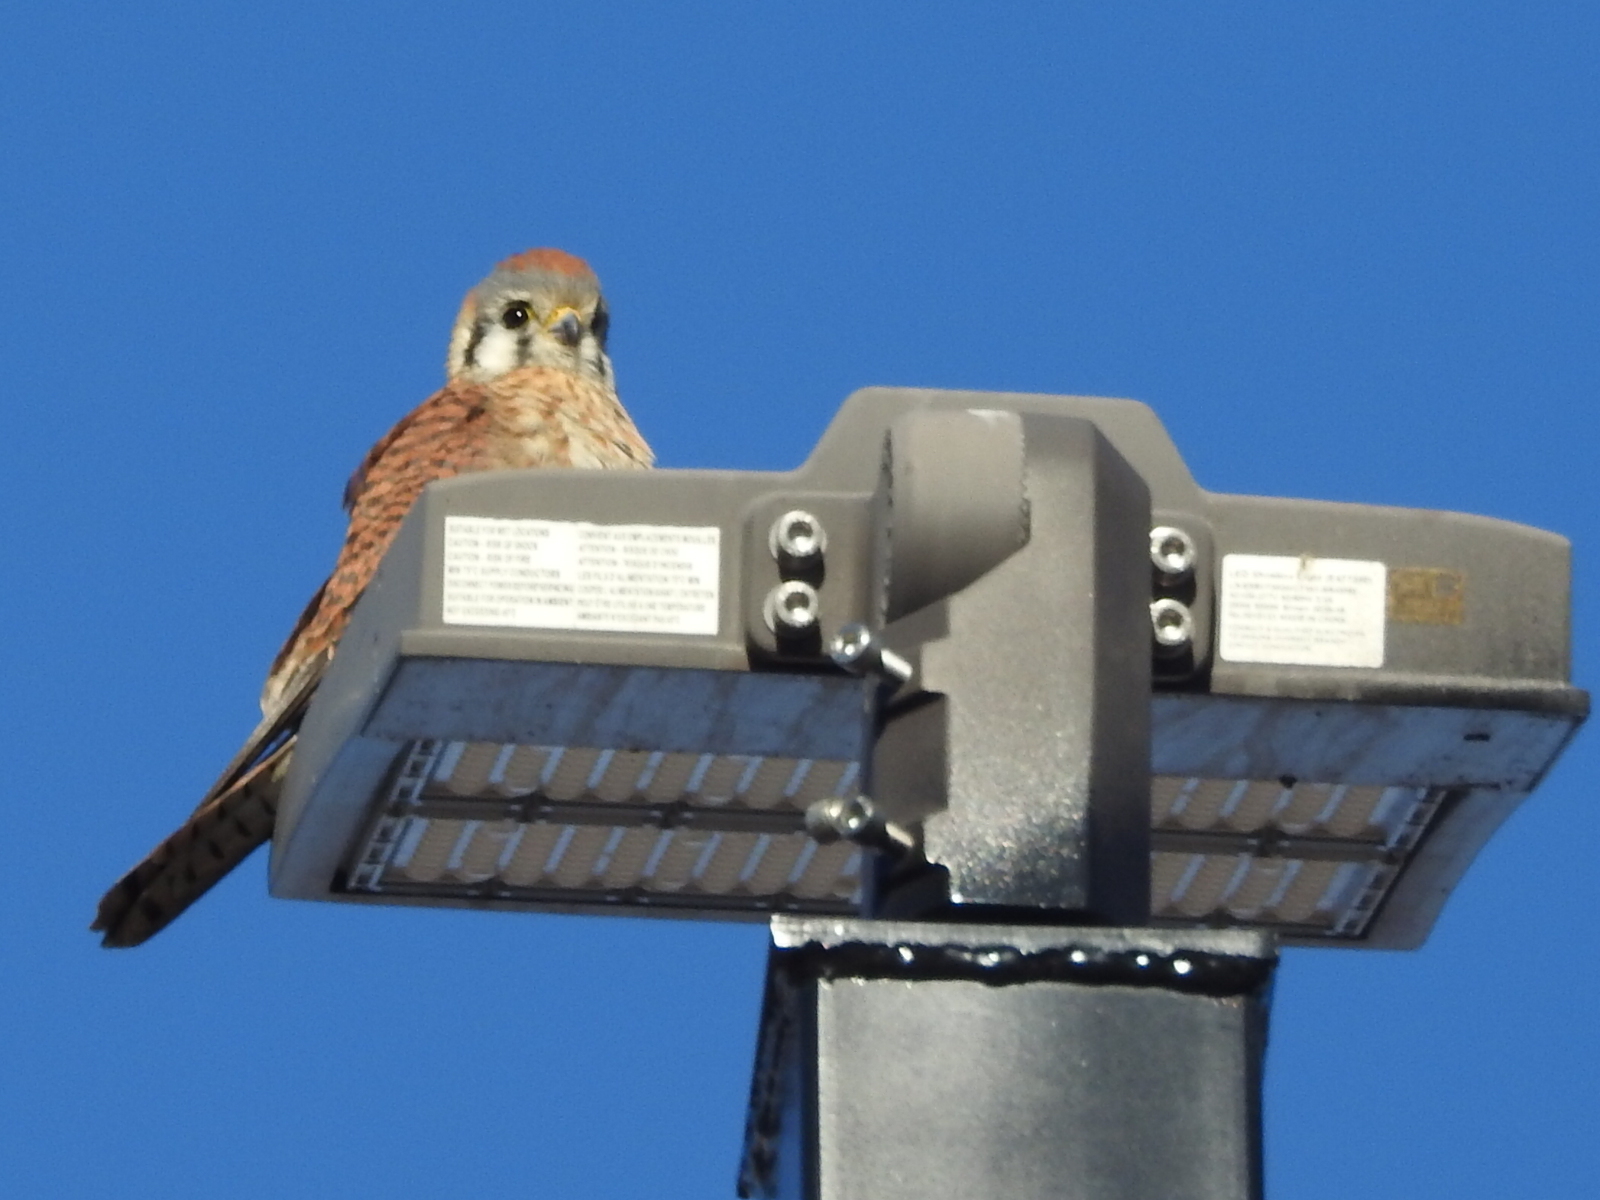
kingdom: Animalia
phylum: Chordata
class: Aves
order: Falconiformes
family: Falconidae
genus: Falco
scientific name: Falco sparverius
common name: American kestrel
